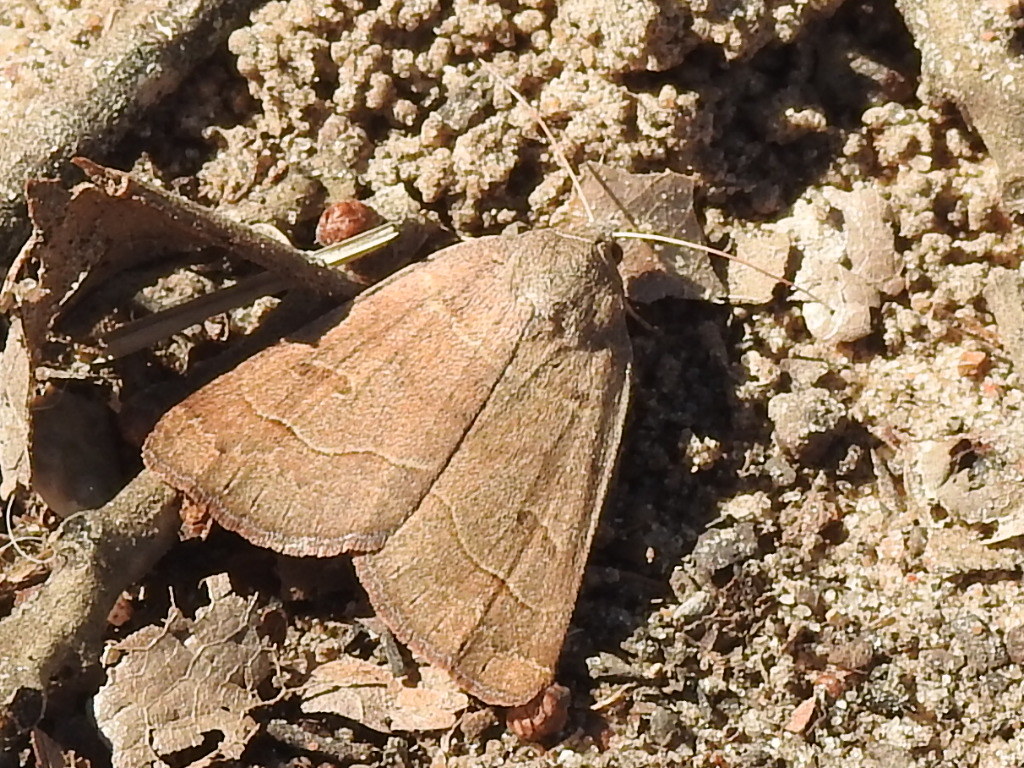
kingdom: Animalia
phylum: Arthropoda
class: Insecta
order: Lepidoptera
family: Erebidae
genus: Phoberia
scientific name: Phoberia atomaris
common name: Common oak moth
